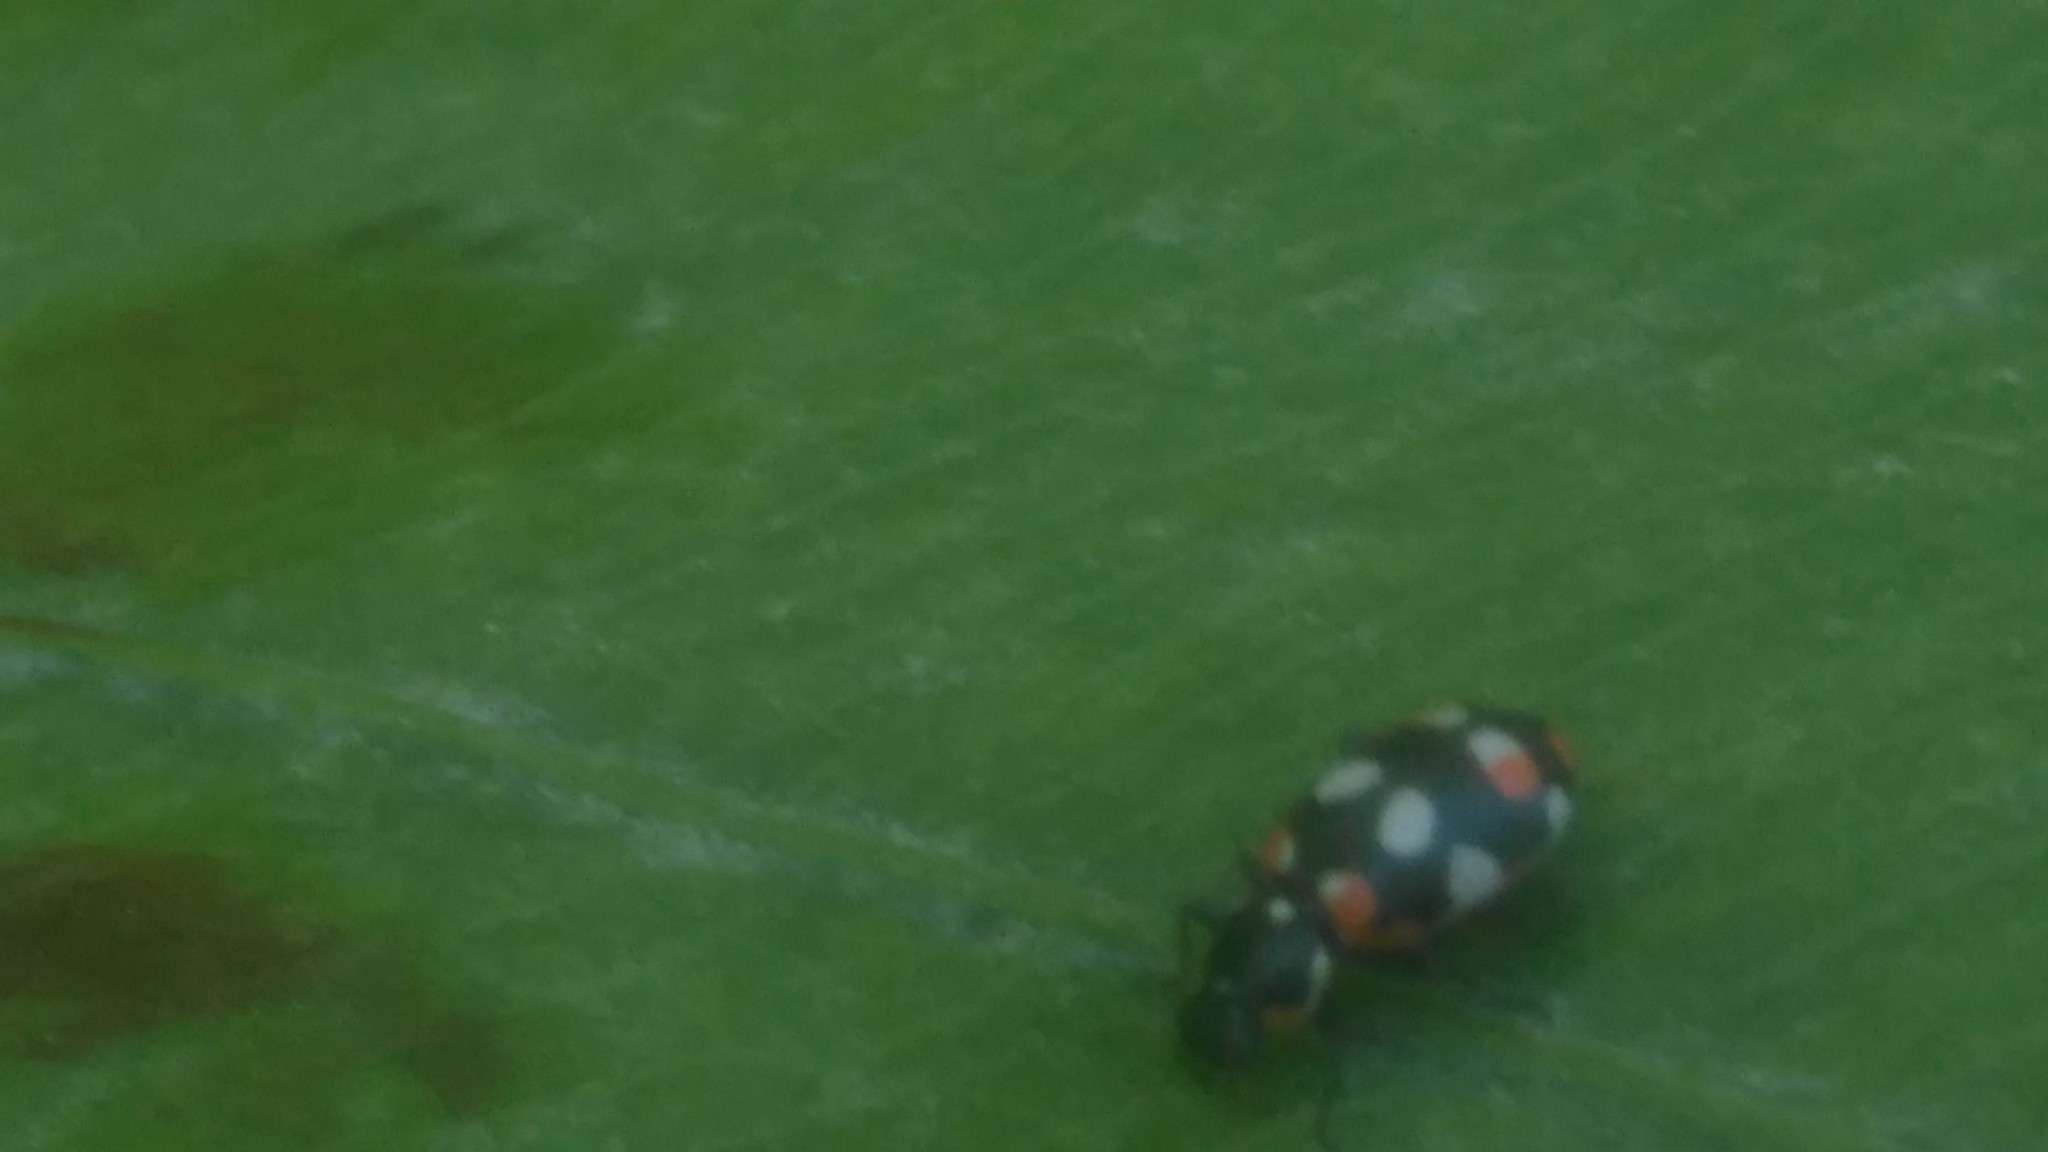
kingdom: Animalia
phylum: Arthropoda
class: Insecta
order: Coleoptera
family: Coccinellidae
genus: Eriopis
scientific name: Eriopis connexa
